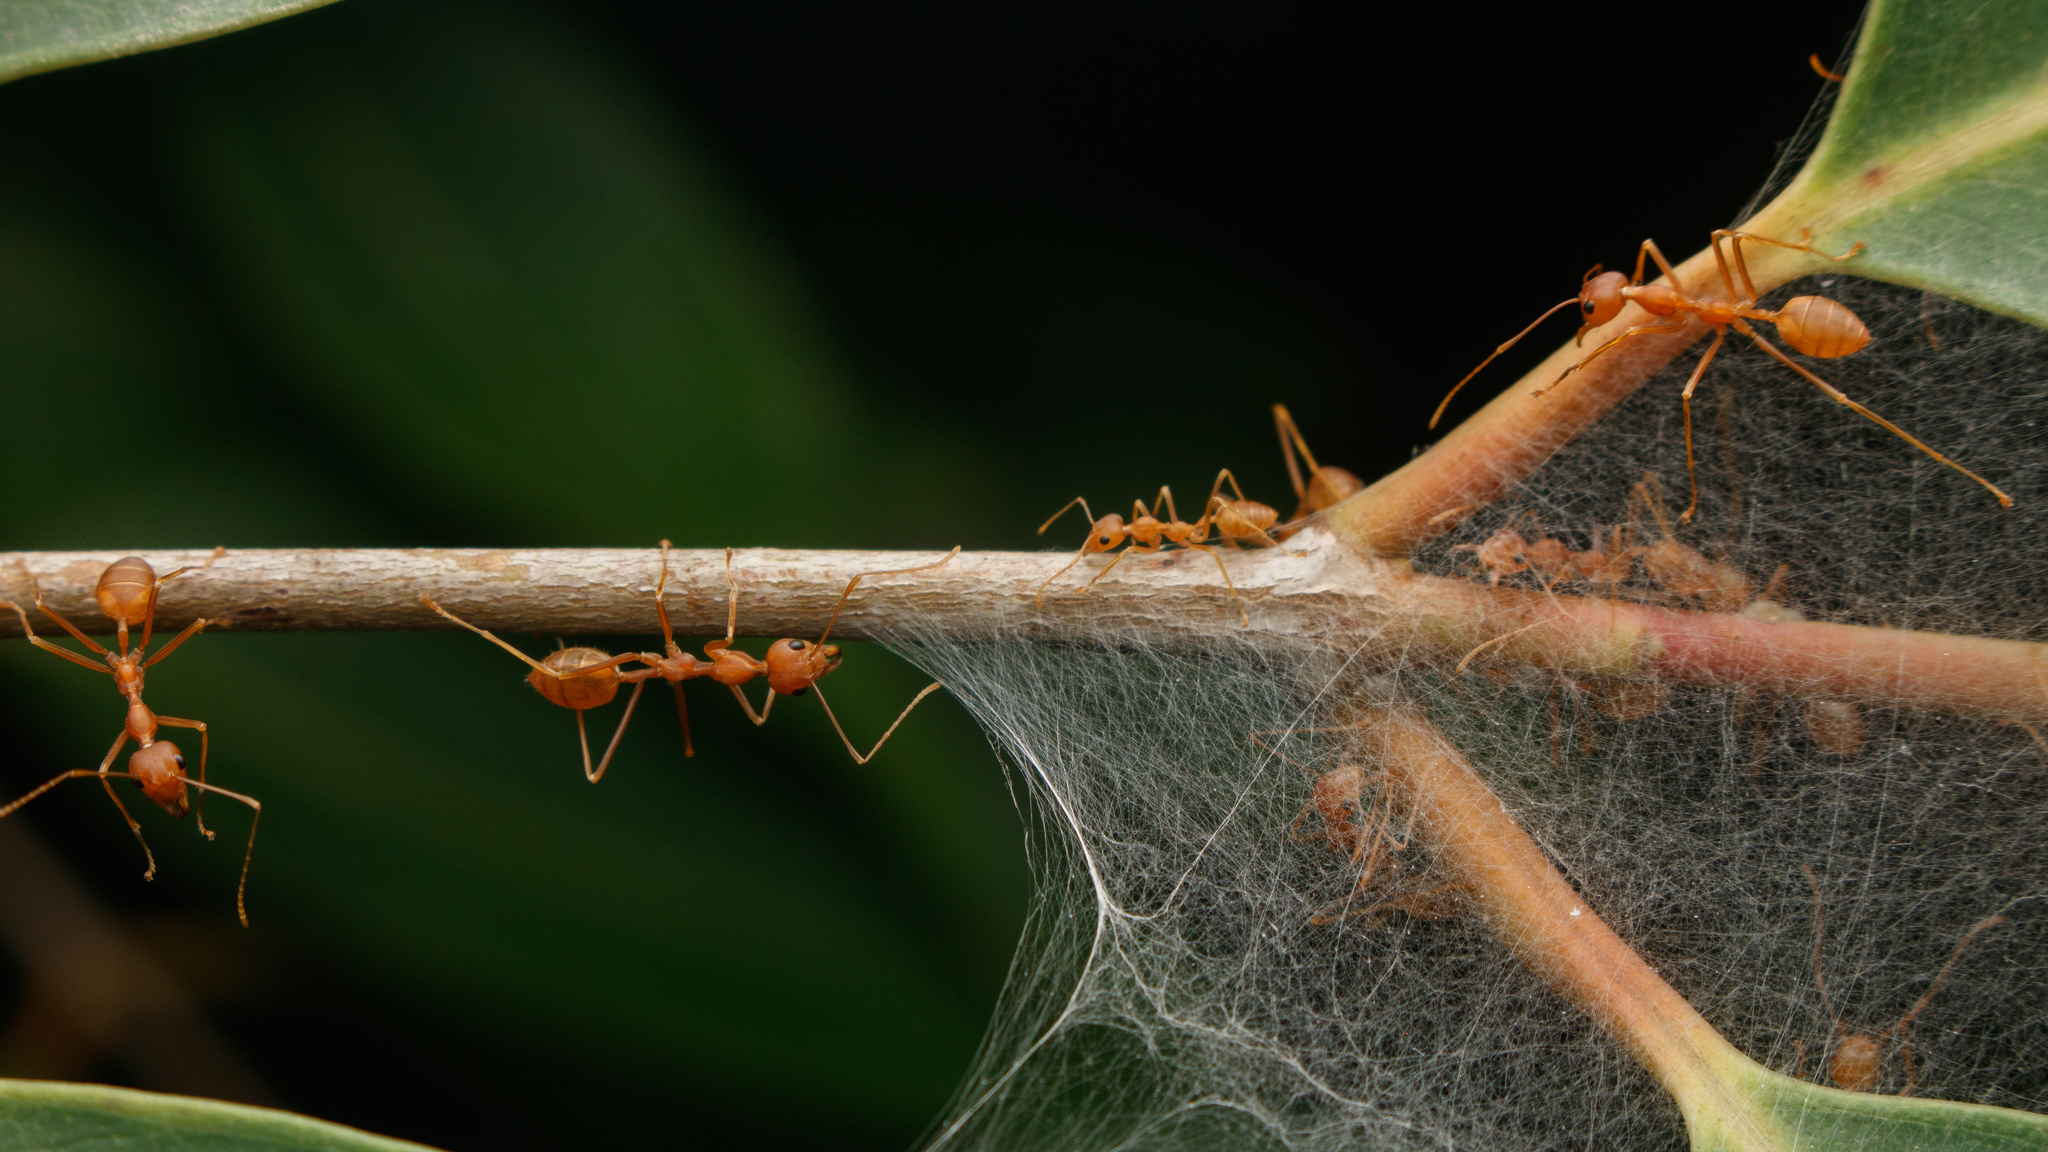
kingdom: Animalia
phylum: Arthropoda
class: Insecta
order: Hymenoptera
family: Formicidae
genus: Oecophylla
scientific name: Oecophylla smaragdina
